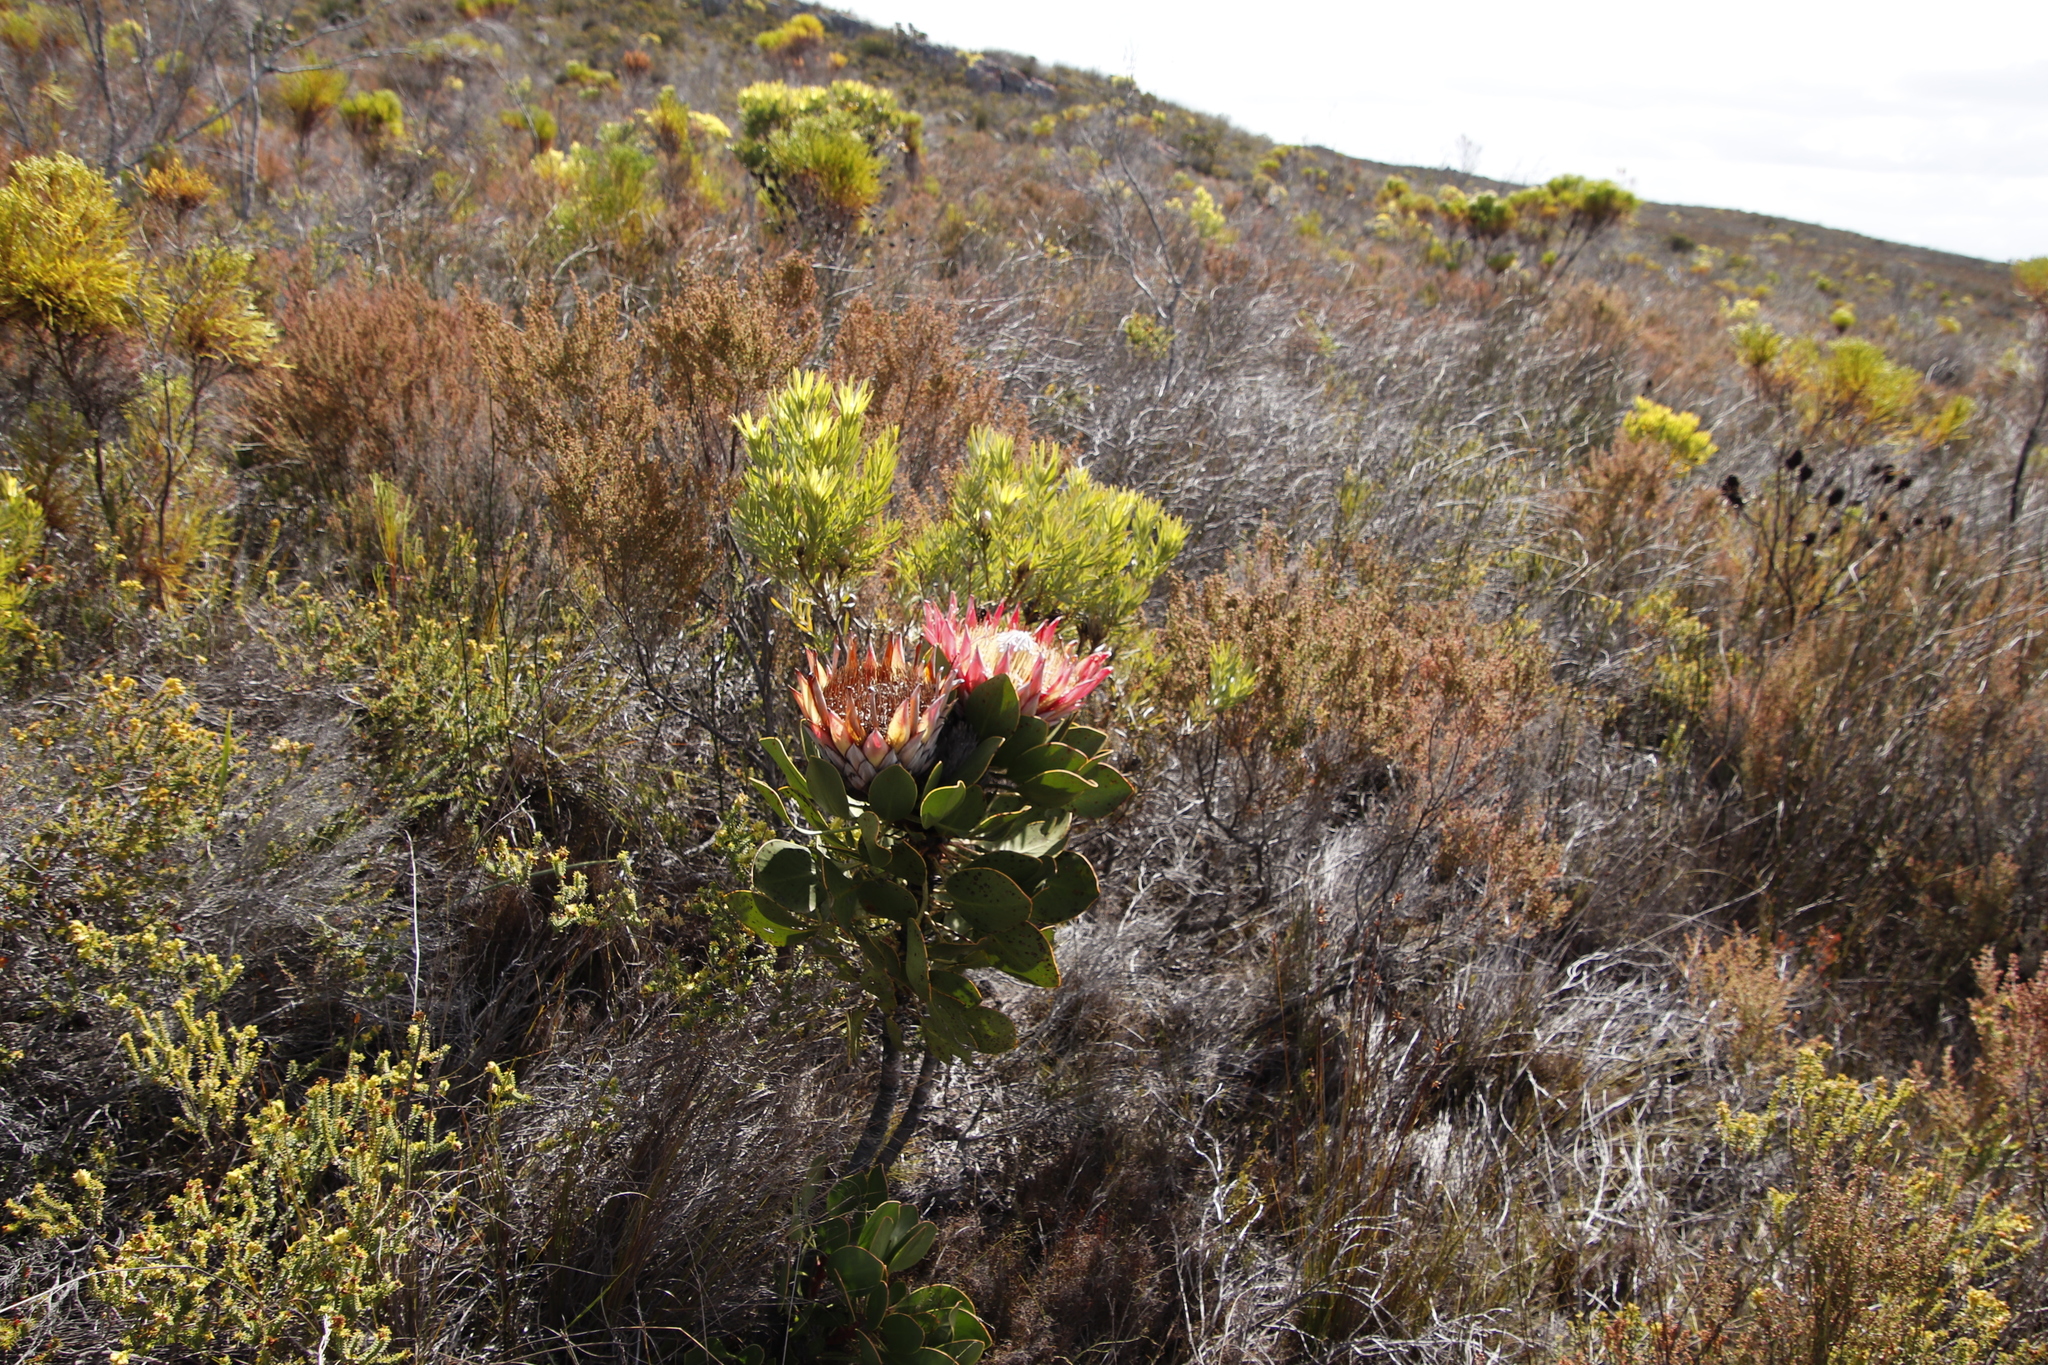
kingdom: Plantae
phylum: Tracheophyta
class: Magnoliopsida
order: Proteales
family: Proteaceae
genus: Protea
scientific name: Protea cynaroides
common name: King protea
